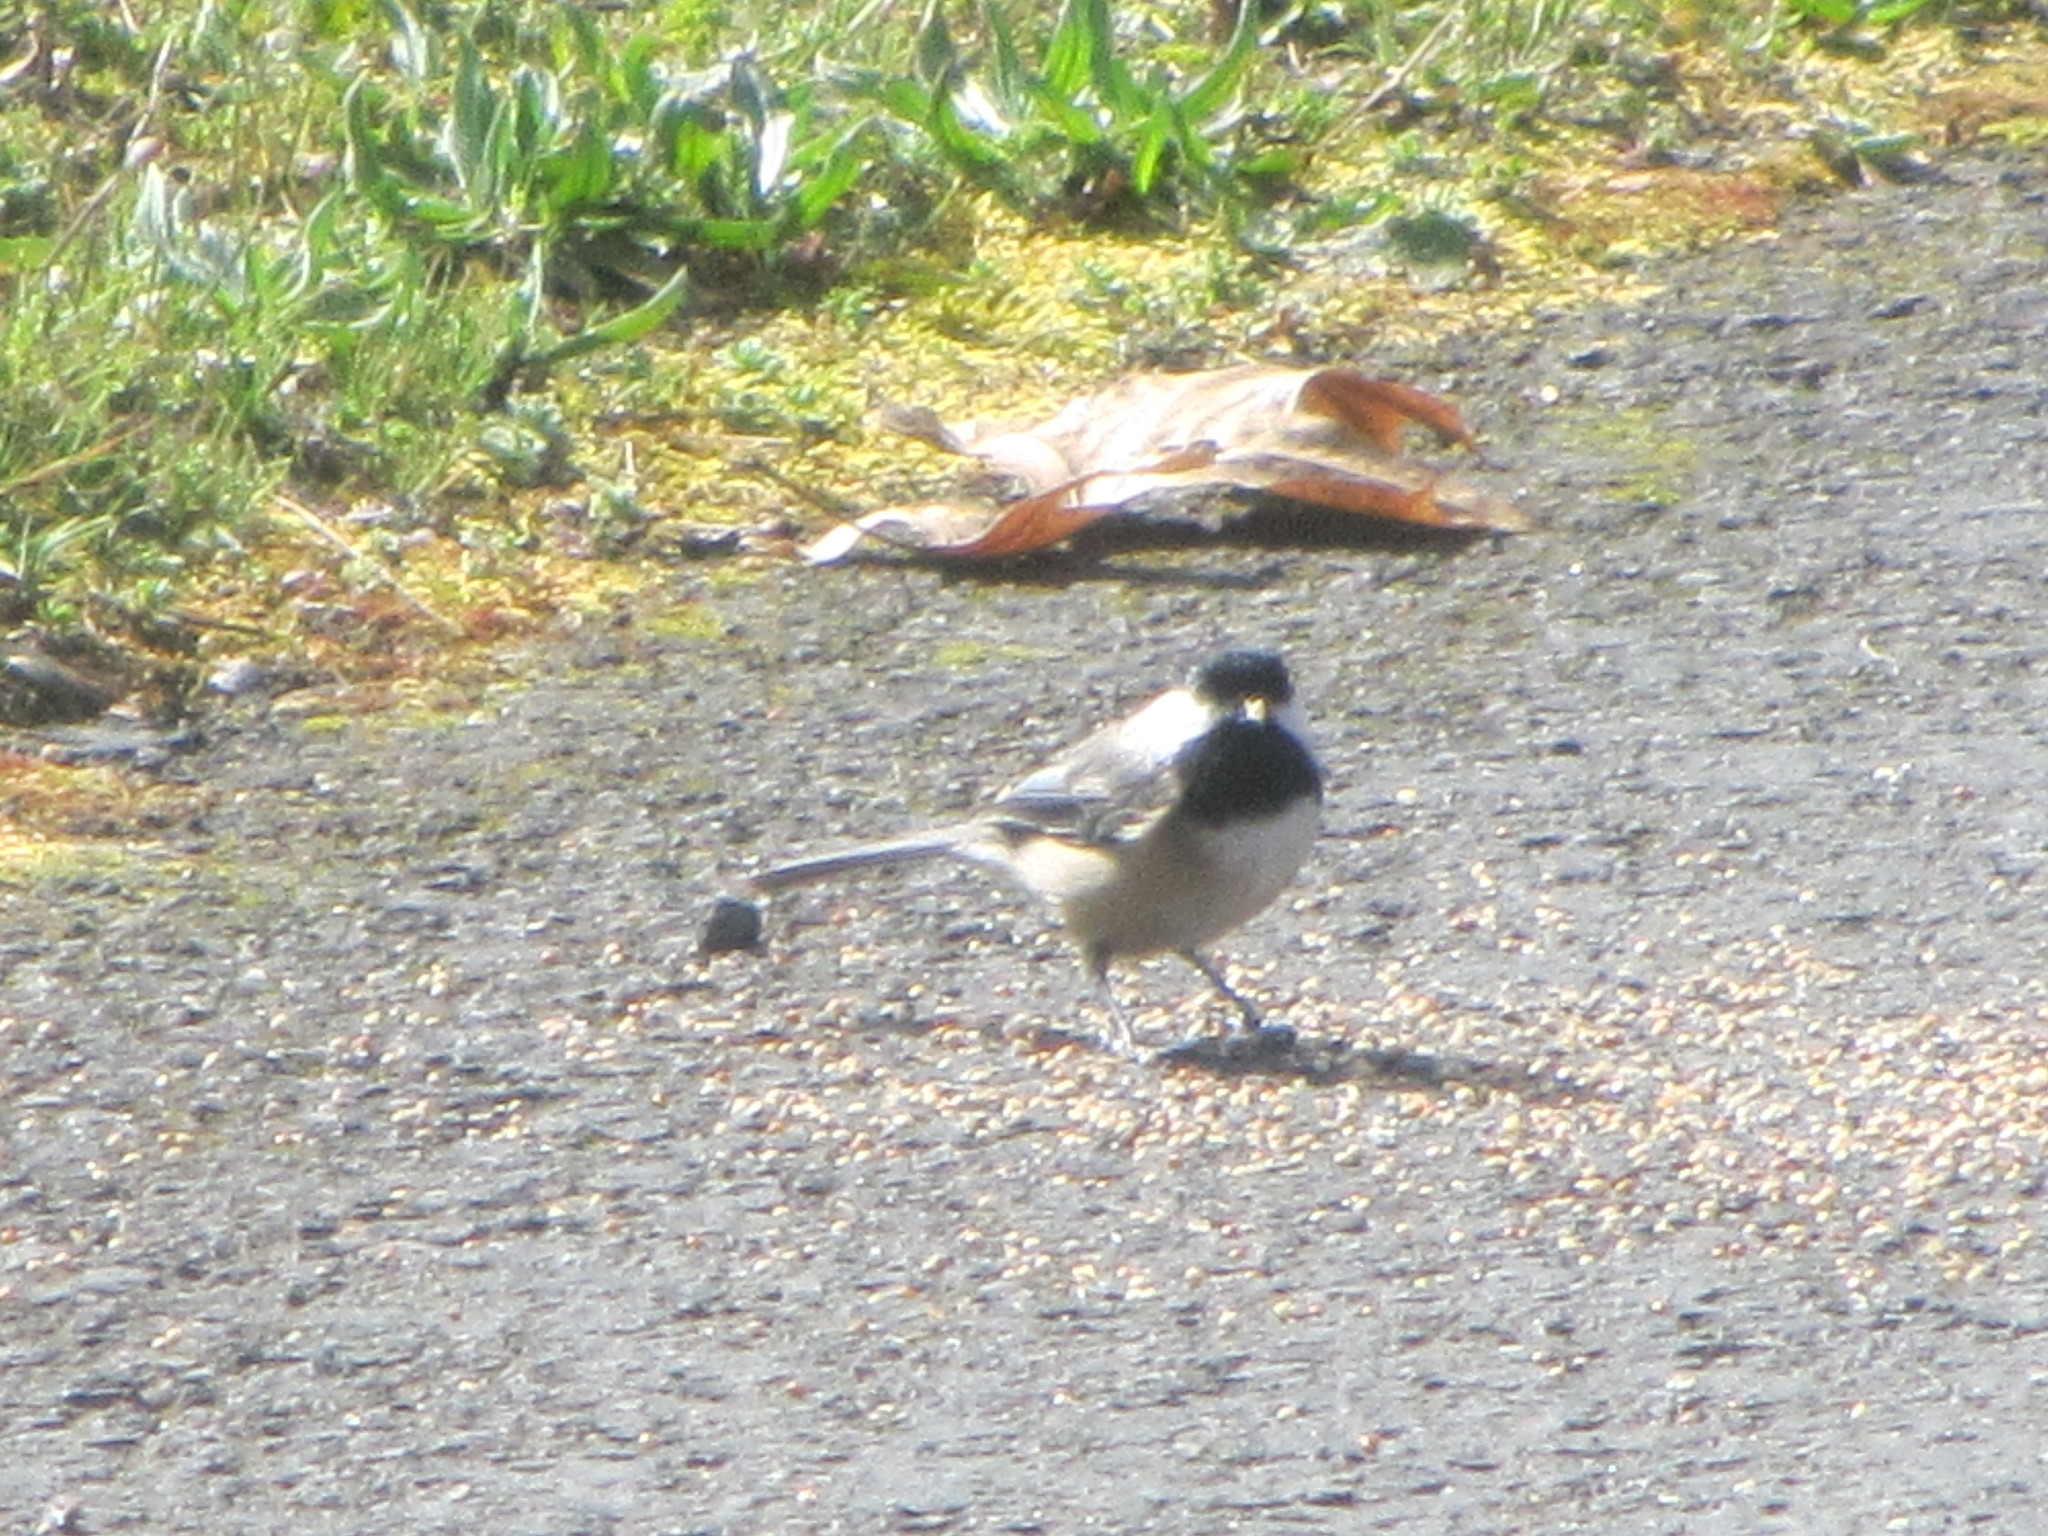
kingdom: Animalia
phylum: Chordata
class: Aves
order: Passeriformes
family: Paridae
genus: Poecile
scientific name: Poecile atricapillus
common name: Black-capped chickadee
